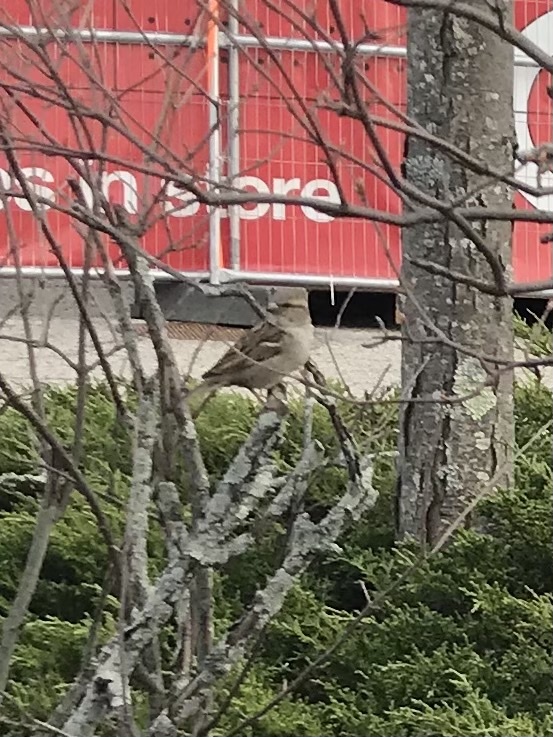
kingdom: Animalia
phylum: Chordata
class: Aves
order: Passeriformes
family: Passeridae
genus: Passer
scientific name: Passer domesticus
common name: House sparrow
